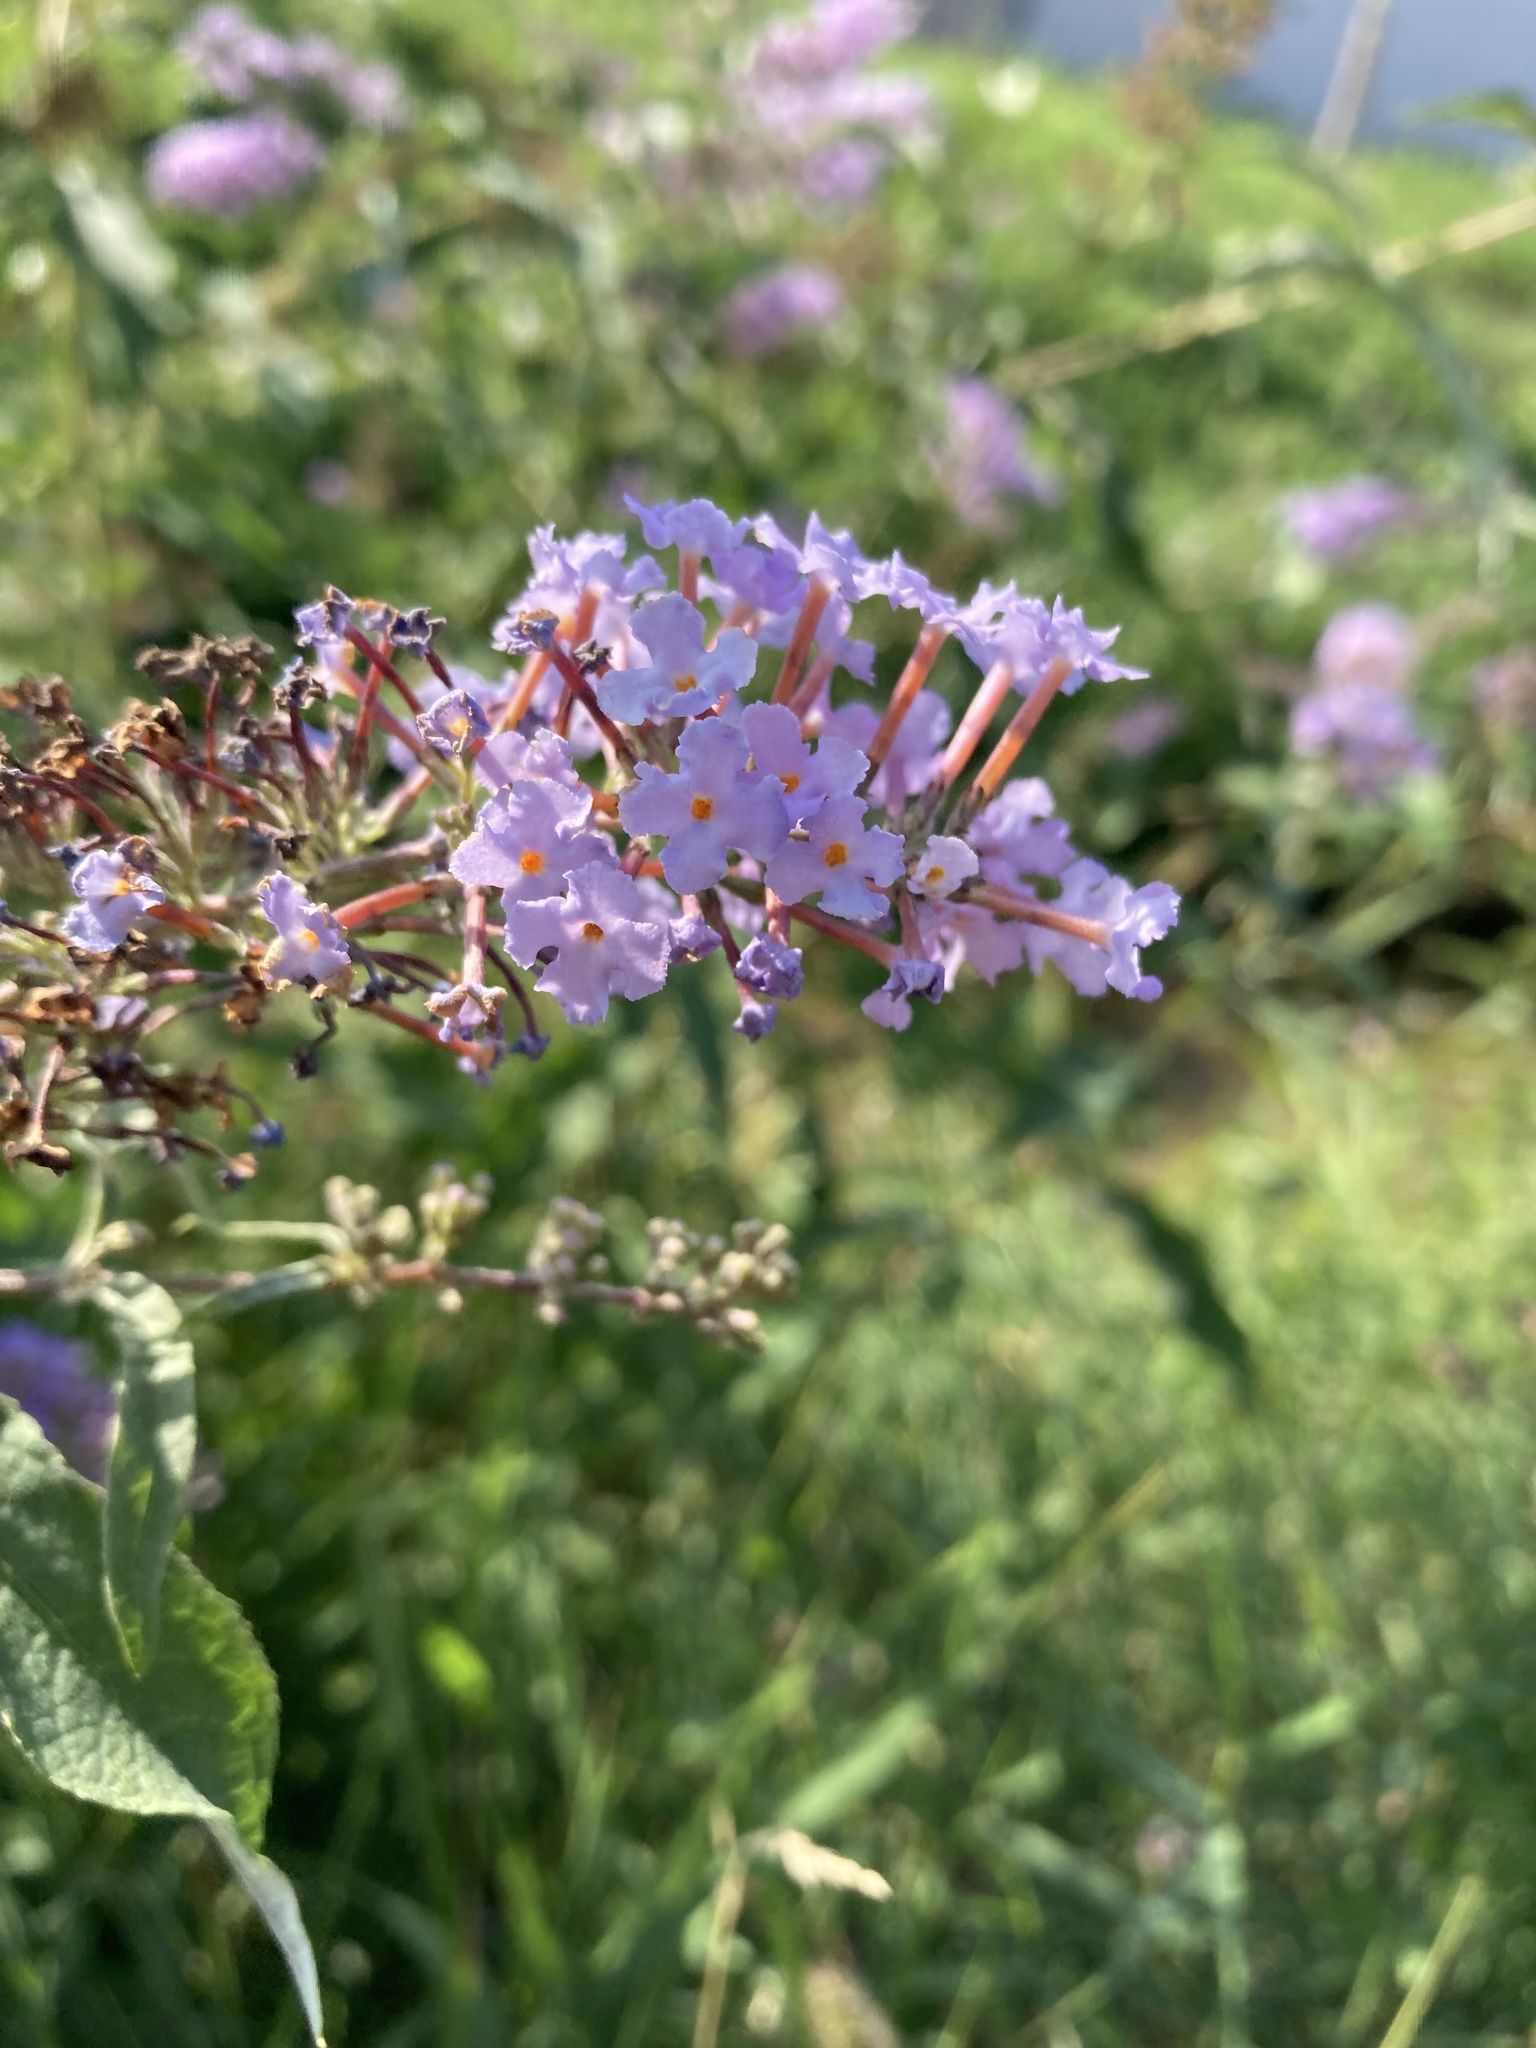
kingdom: Plantae
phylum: Tracheophyta
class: Magnoliopsida
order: Lamiales
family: Scrophulariaceae
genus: Buddleja
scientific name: Buddleja davidii
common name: Butterfly-bush
